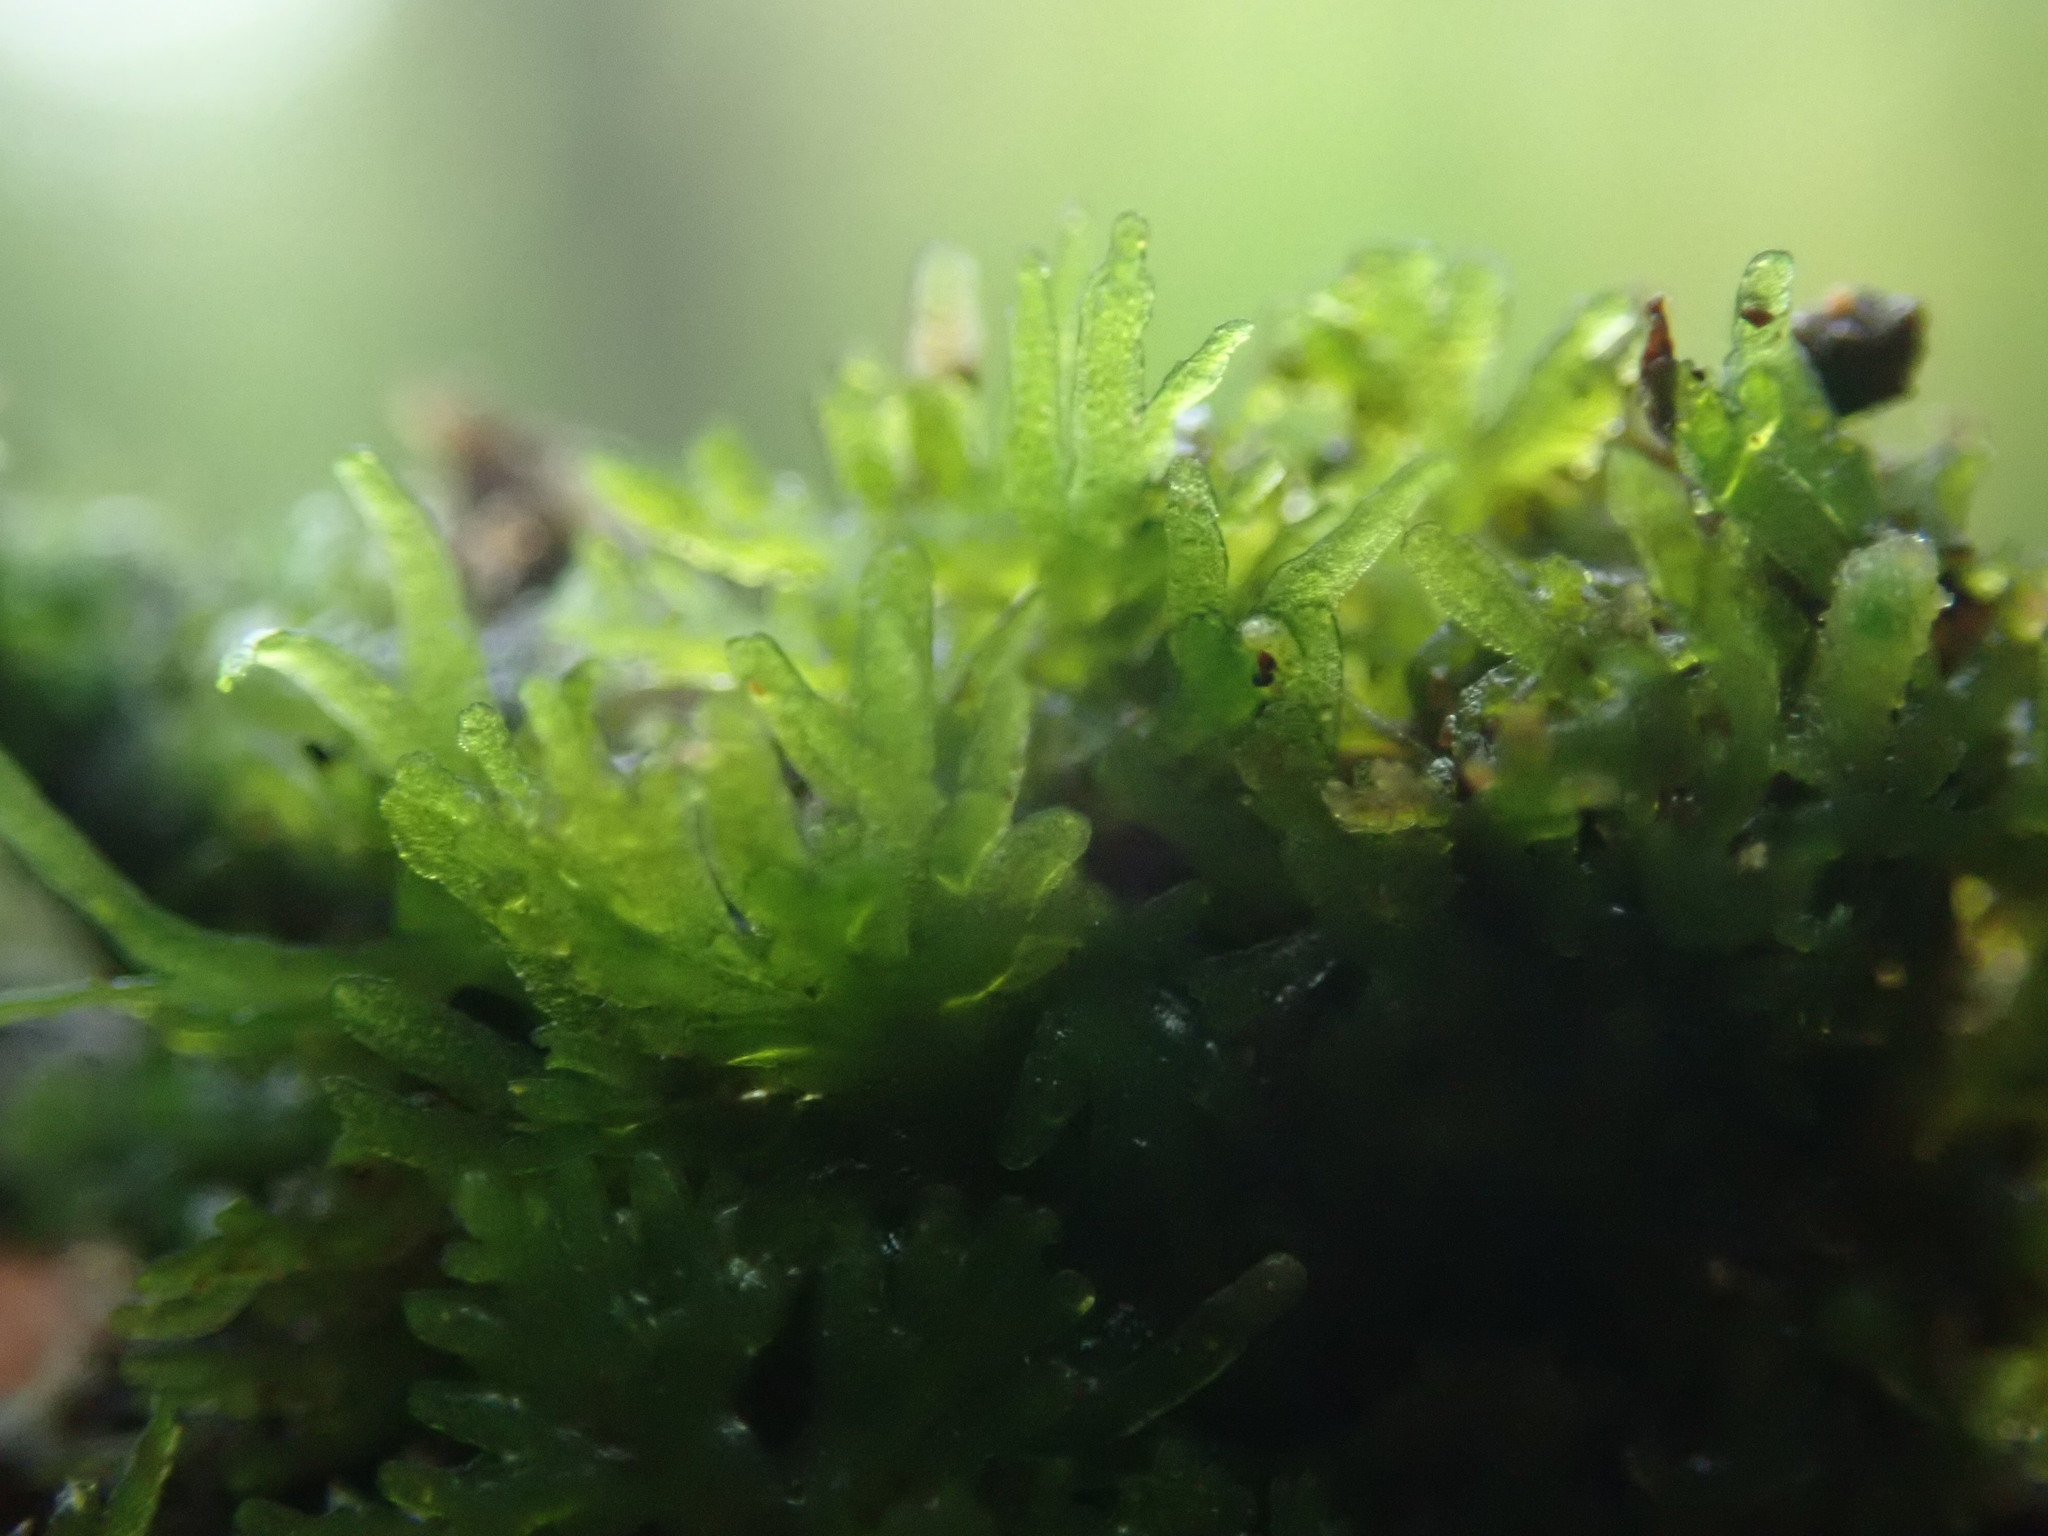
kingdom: Plantae
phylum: Marchantiophyta
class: Jungermanniopsida
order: Metzgeriales
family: Aneuraceae
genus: Riccardia
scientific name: Riccardia chamedryfolia
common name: Jagged germanderwort
